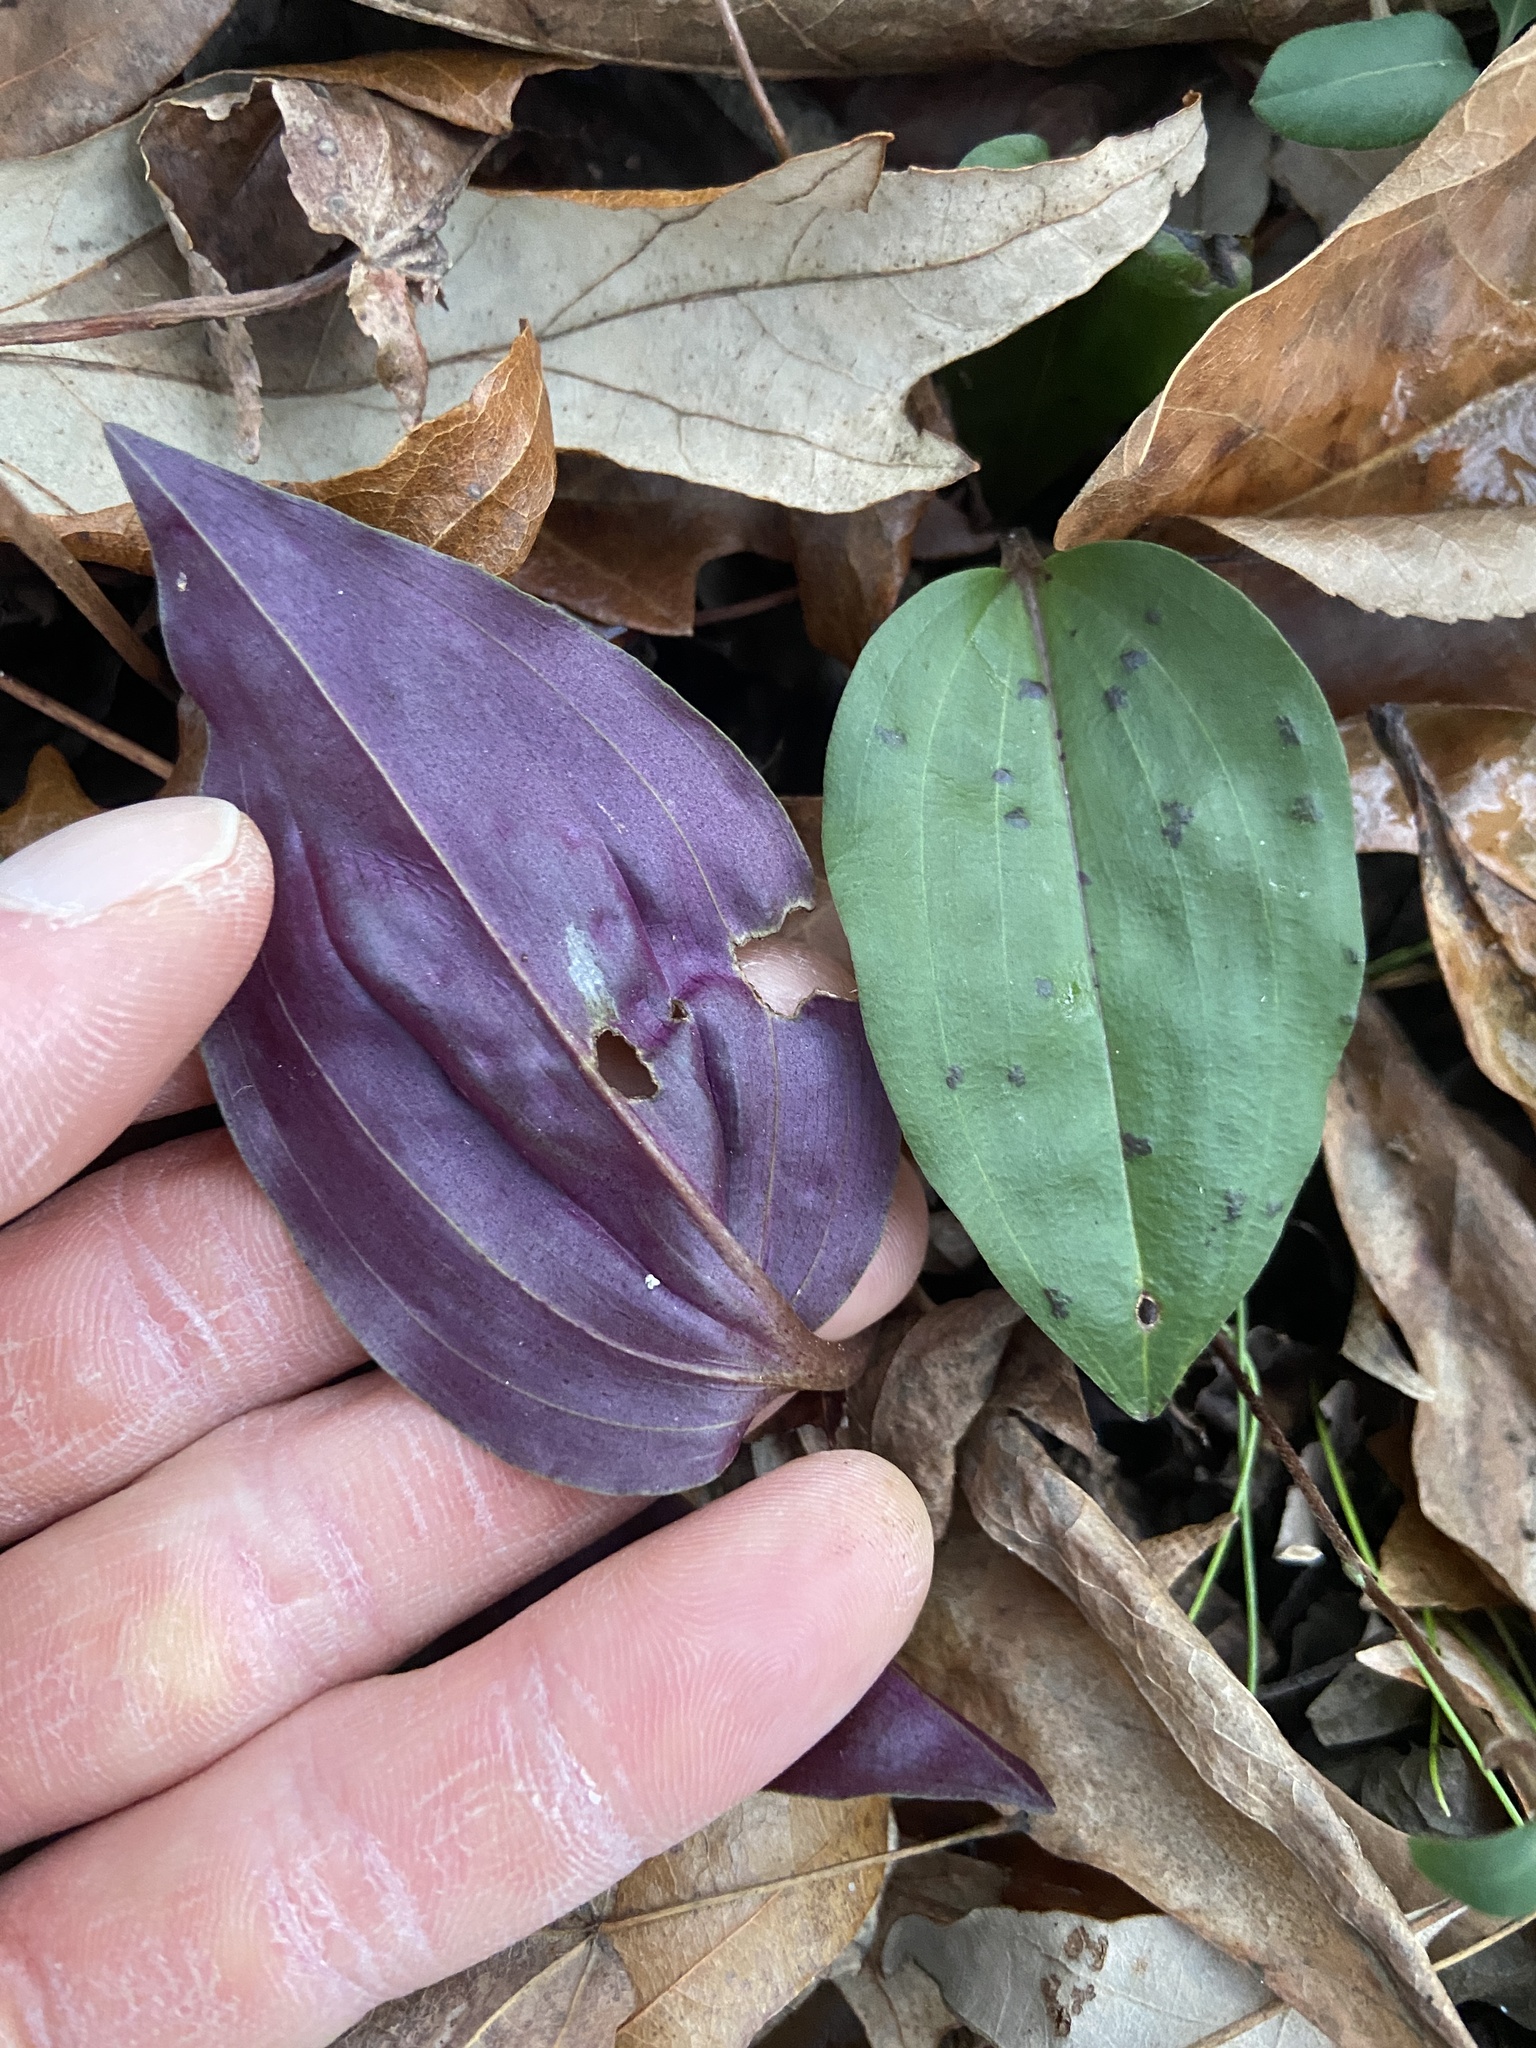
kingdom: Plantae
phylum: Tracheophyta
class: Liliopsida
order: Asparagales
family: Orchidaceae
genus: Tipularia
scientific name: Tipularia discolor
